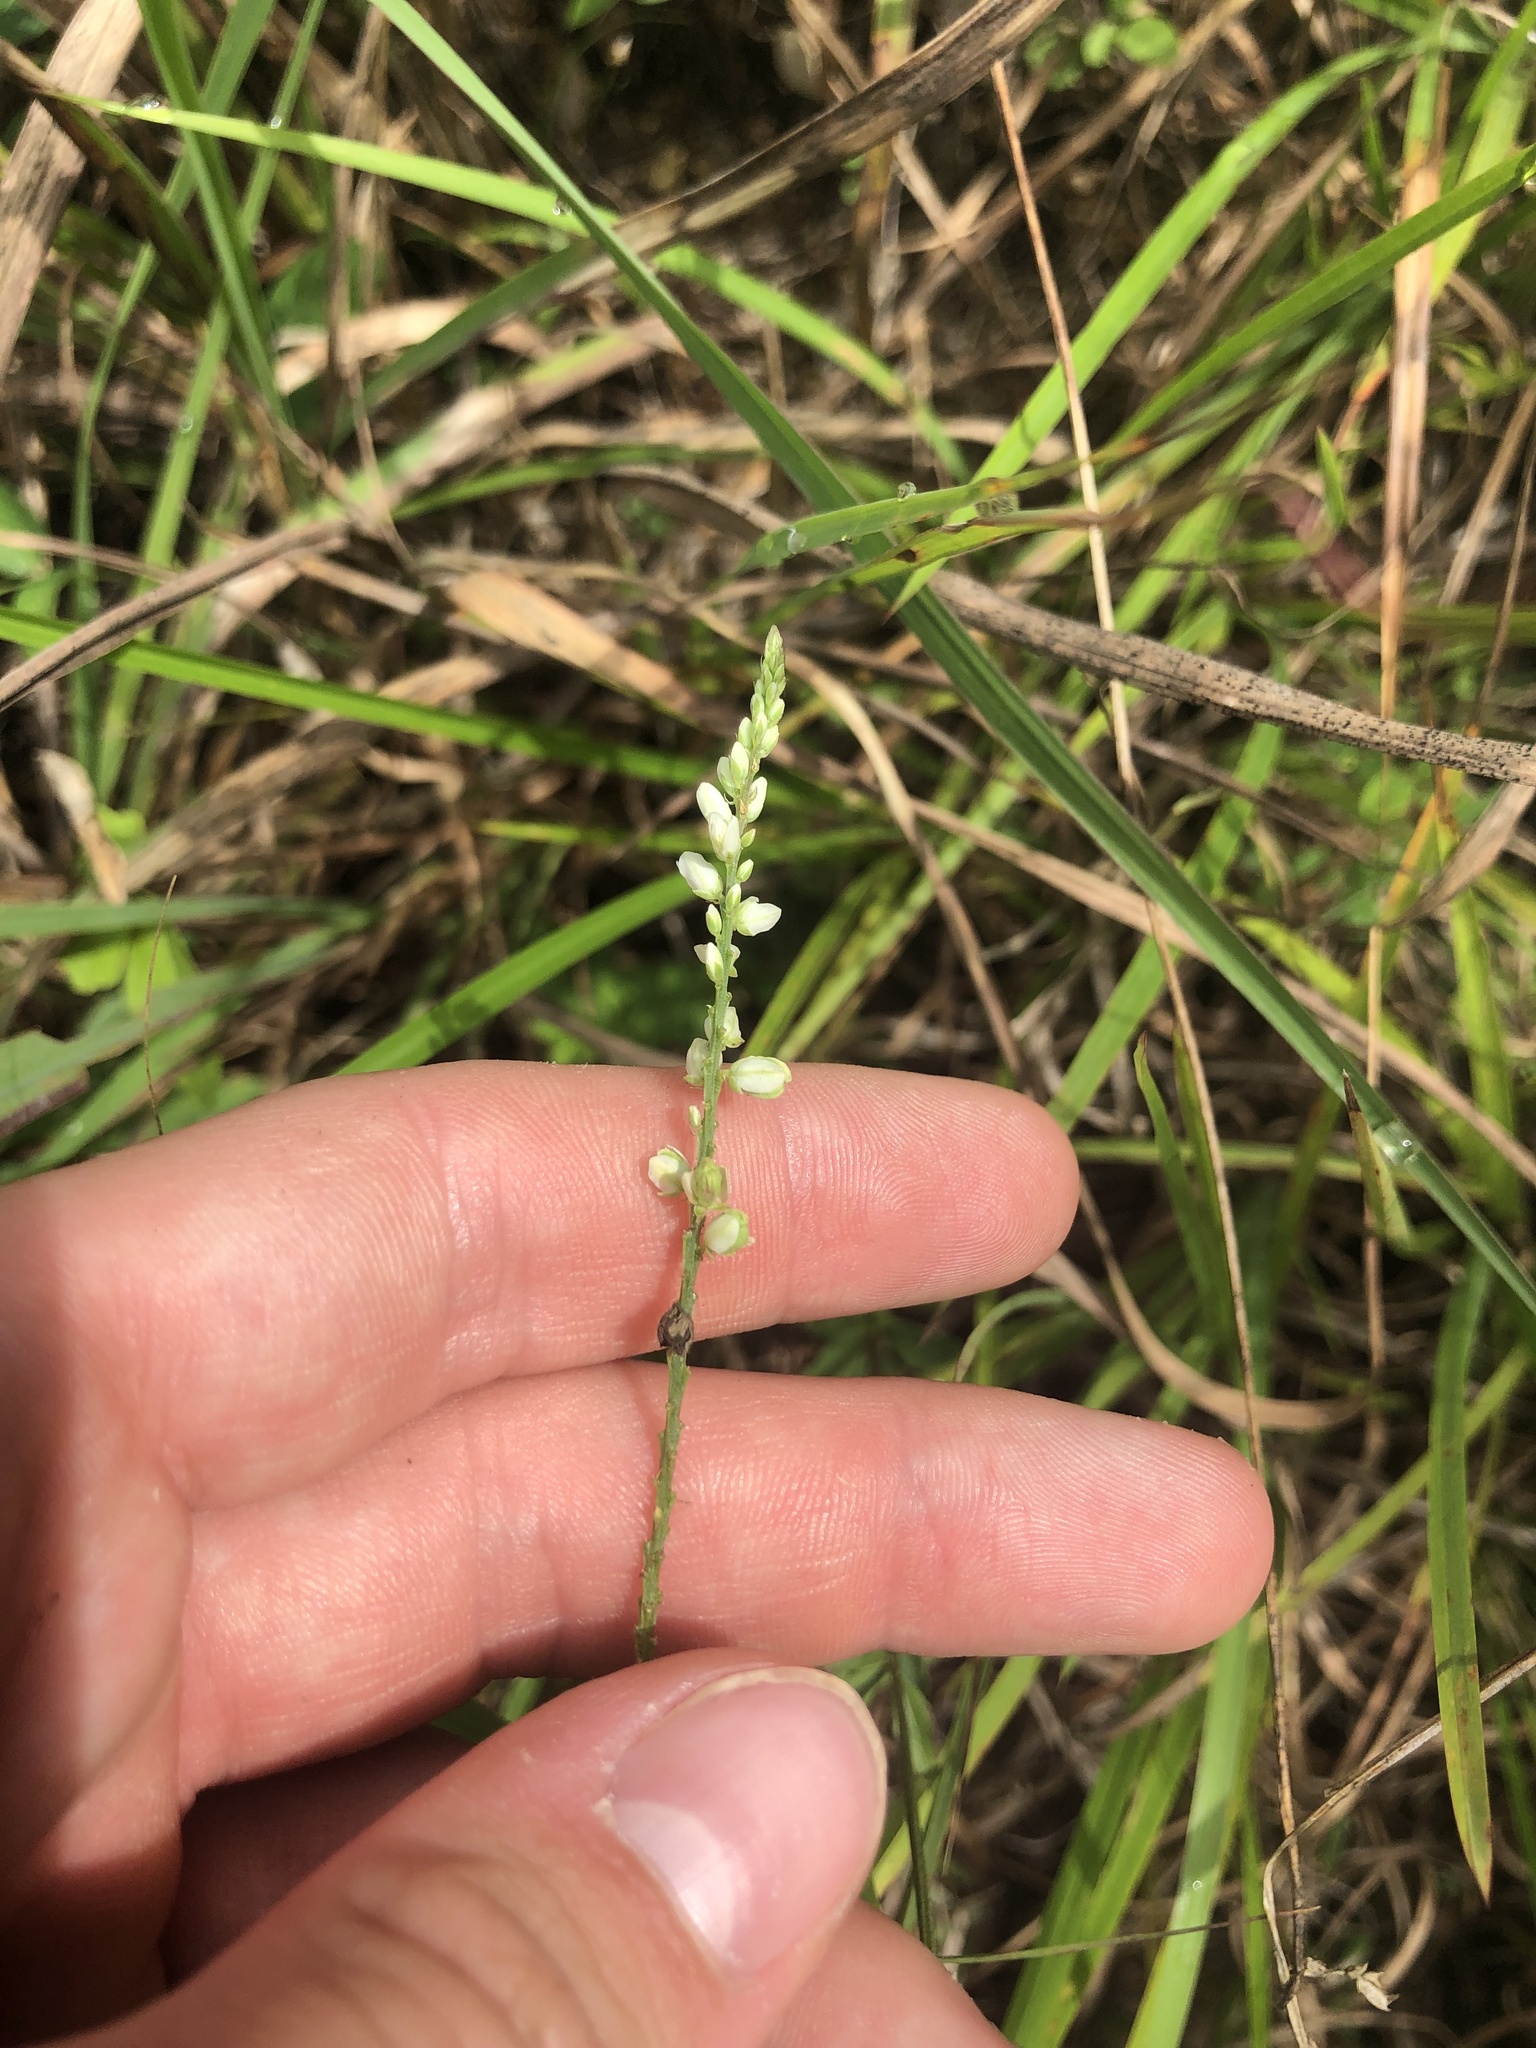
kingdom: Plantae
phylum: Tracheophyta
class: Magnoliopsida
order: Fabales
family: Polygalaceae
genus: Polygala
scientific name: Polygala boykinii
